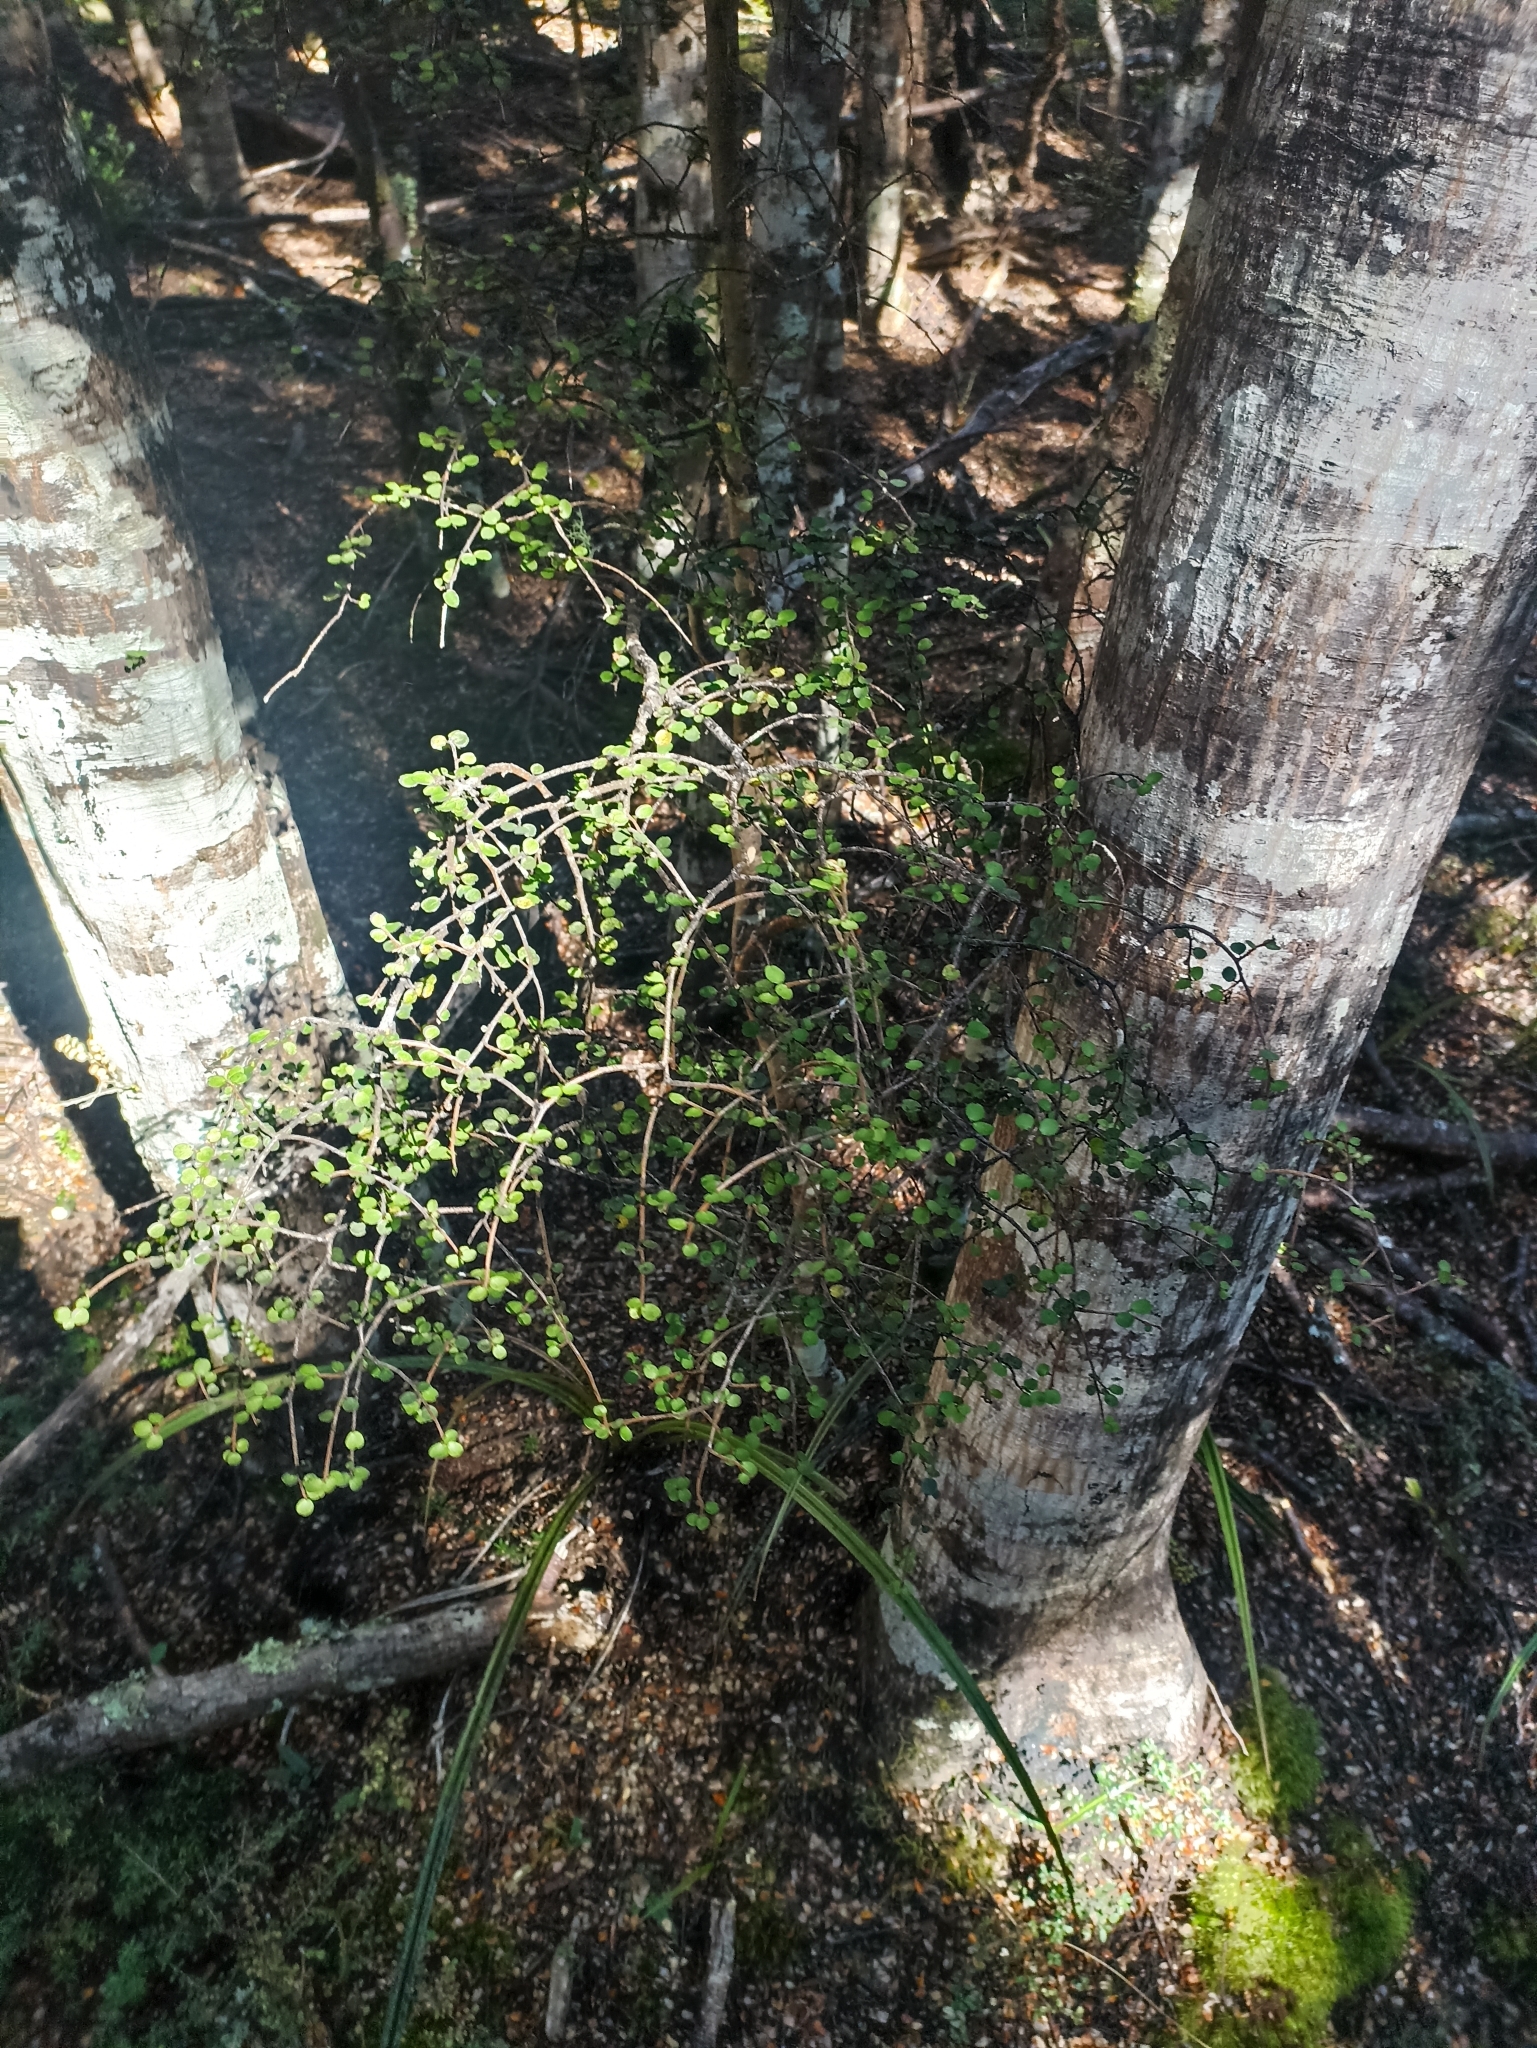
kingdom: Plantae
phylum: Tracheophyta
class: Magnoliopsida
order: Ericales
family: Primulaceae
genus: Myrsine
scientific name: Myrsine divaricata
